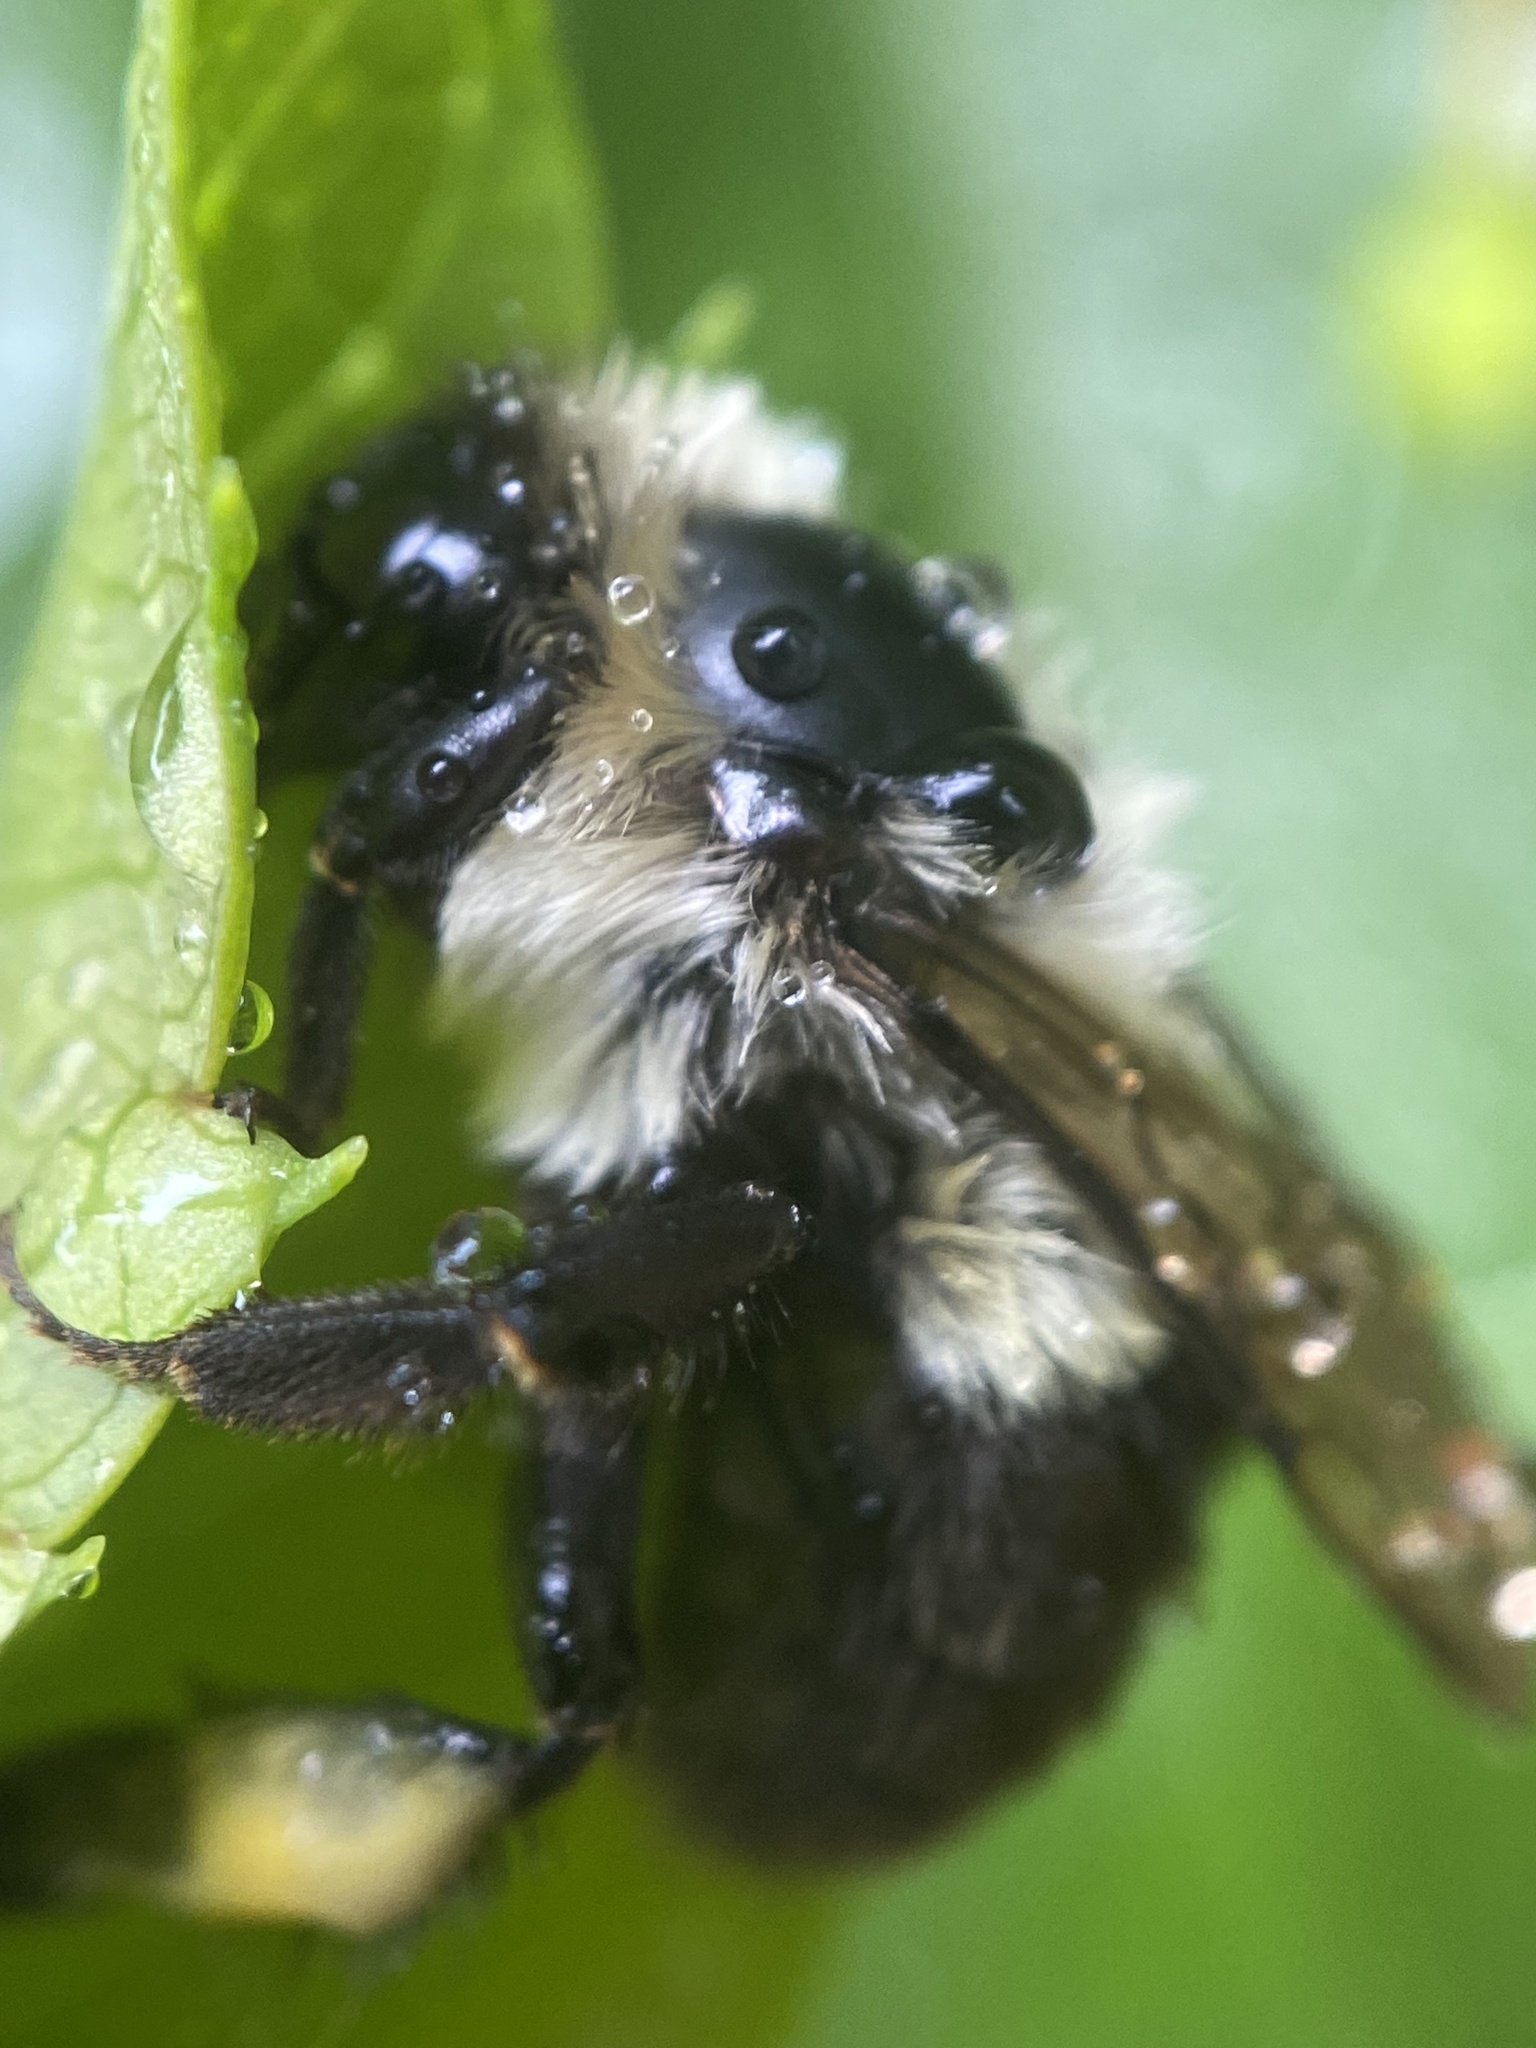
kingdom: Animalia
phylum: Arthropoda
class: Insecta
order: Hymenoptera
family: Apidae
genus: Bombus
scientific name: Bombus impatiens
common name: Common eastern bumble bee
